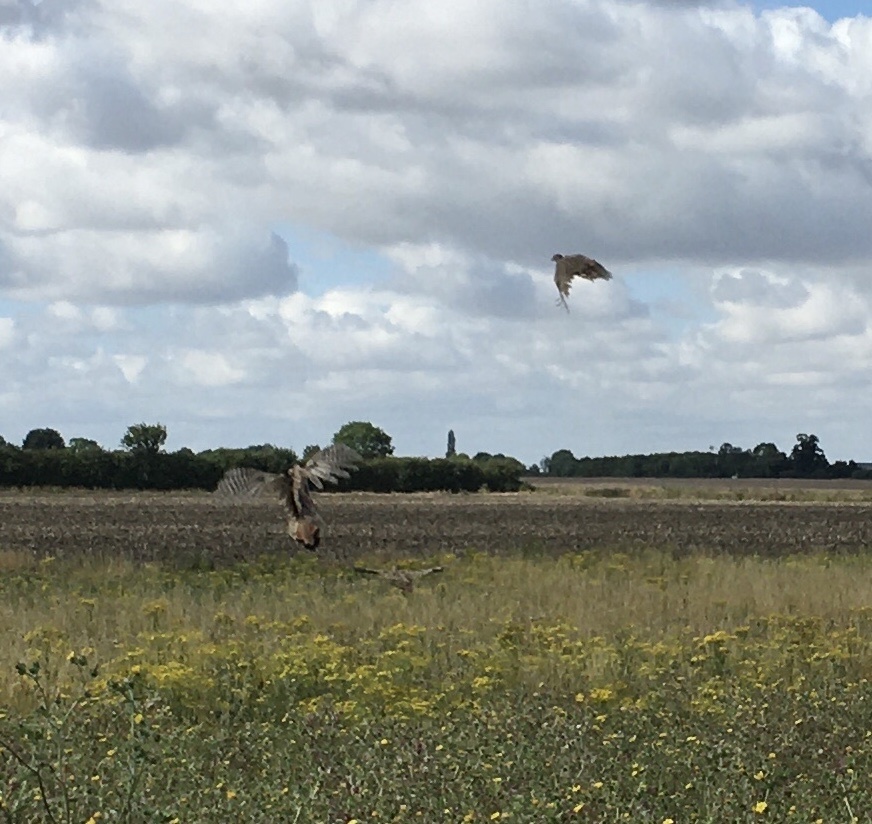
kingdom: Animalia
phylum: Chordata
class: Aves
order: Galliformes
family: Phasianidae
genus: Perdix
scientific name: Perdix perdix
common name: Grey partridge
